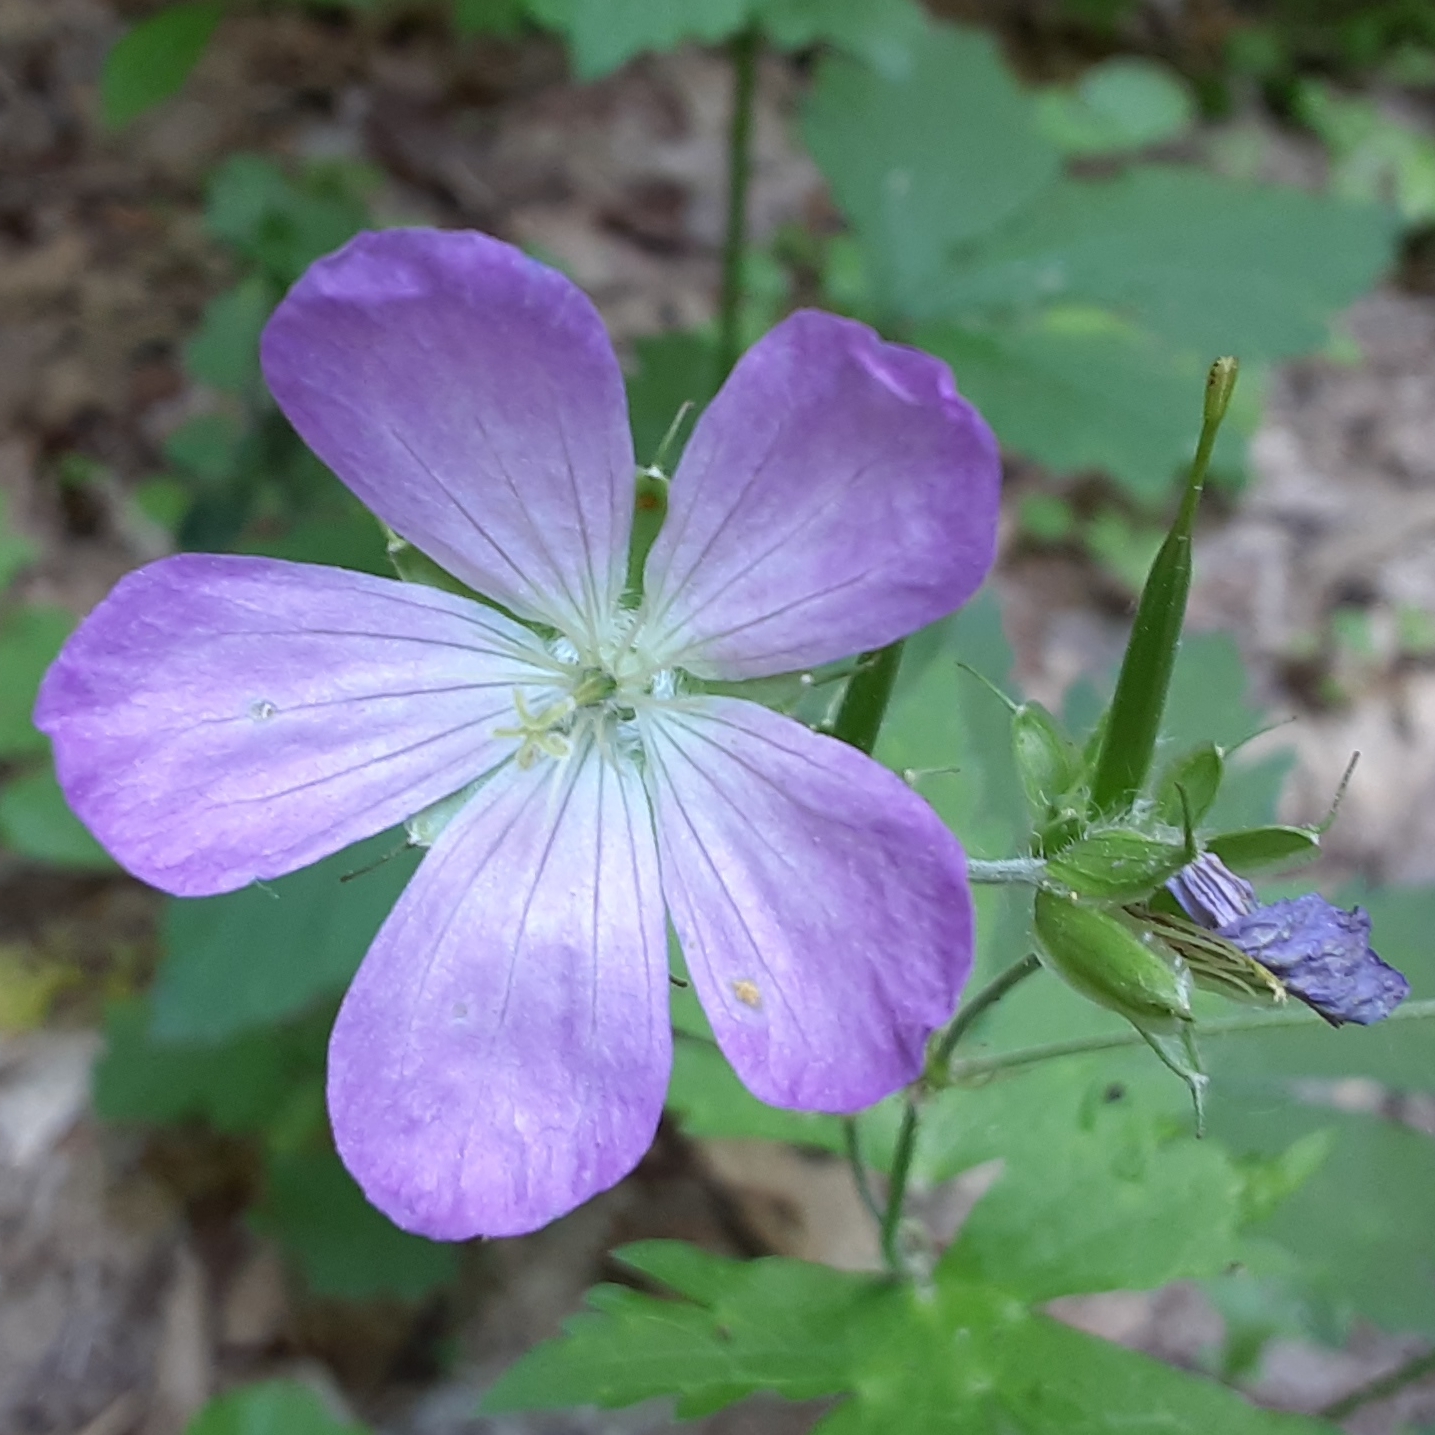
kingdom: Plantae
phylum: Tracheophyta
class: Magnoliopsida
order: Geraniales
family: Geraniaceae
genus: Geranium
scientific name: Geranium maculatum
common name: Spotted geranium
